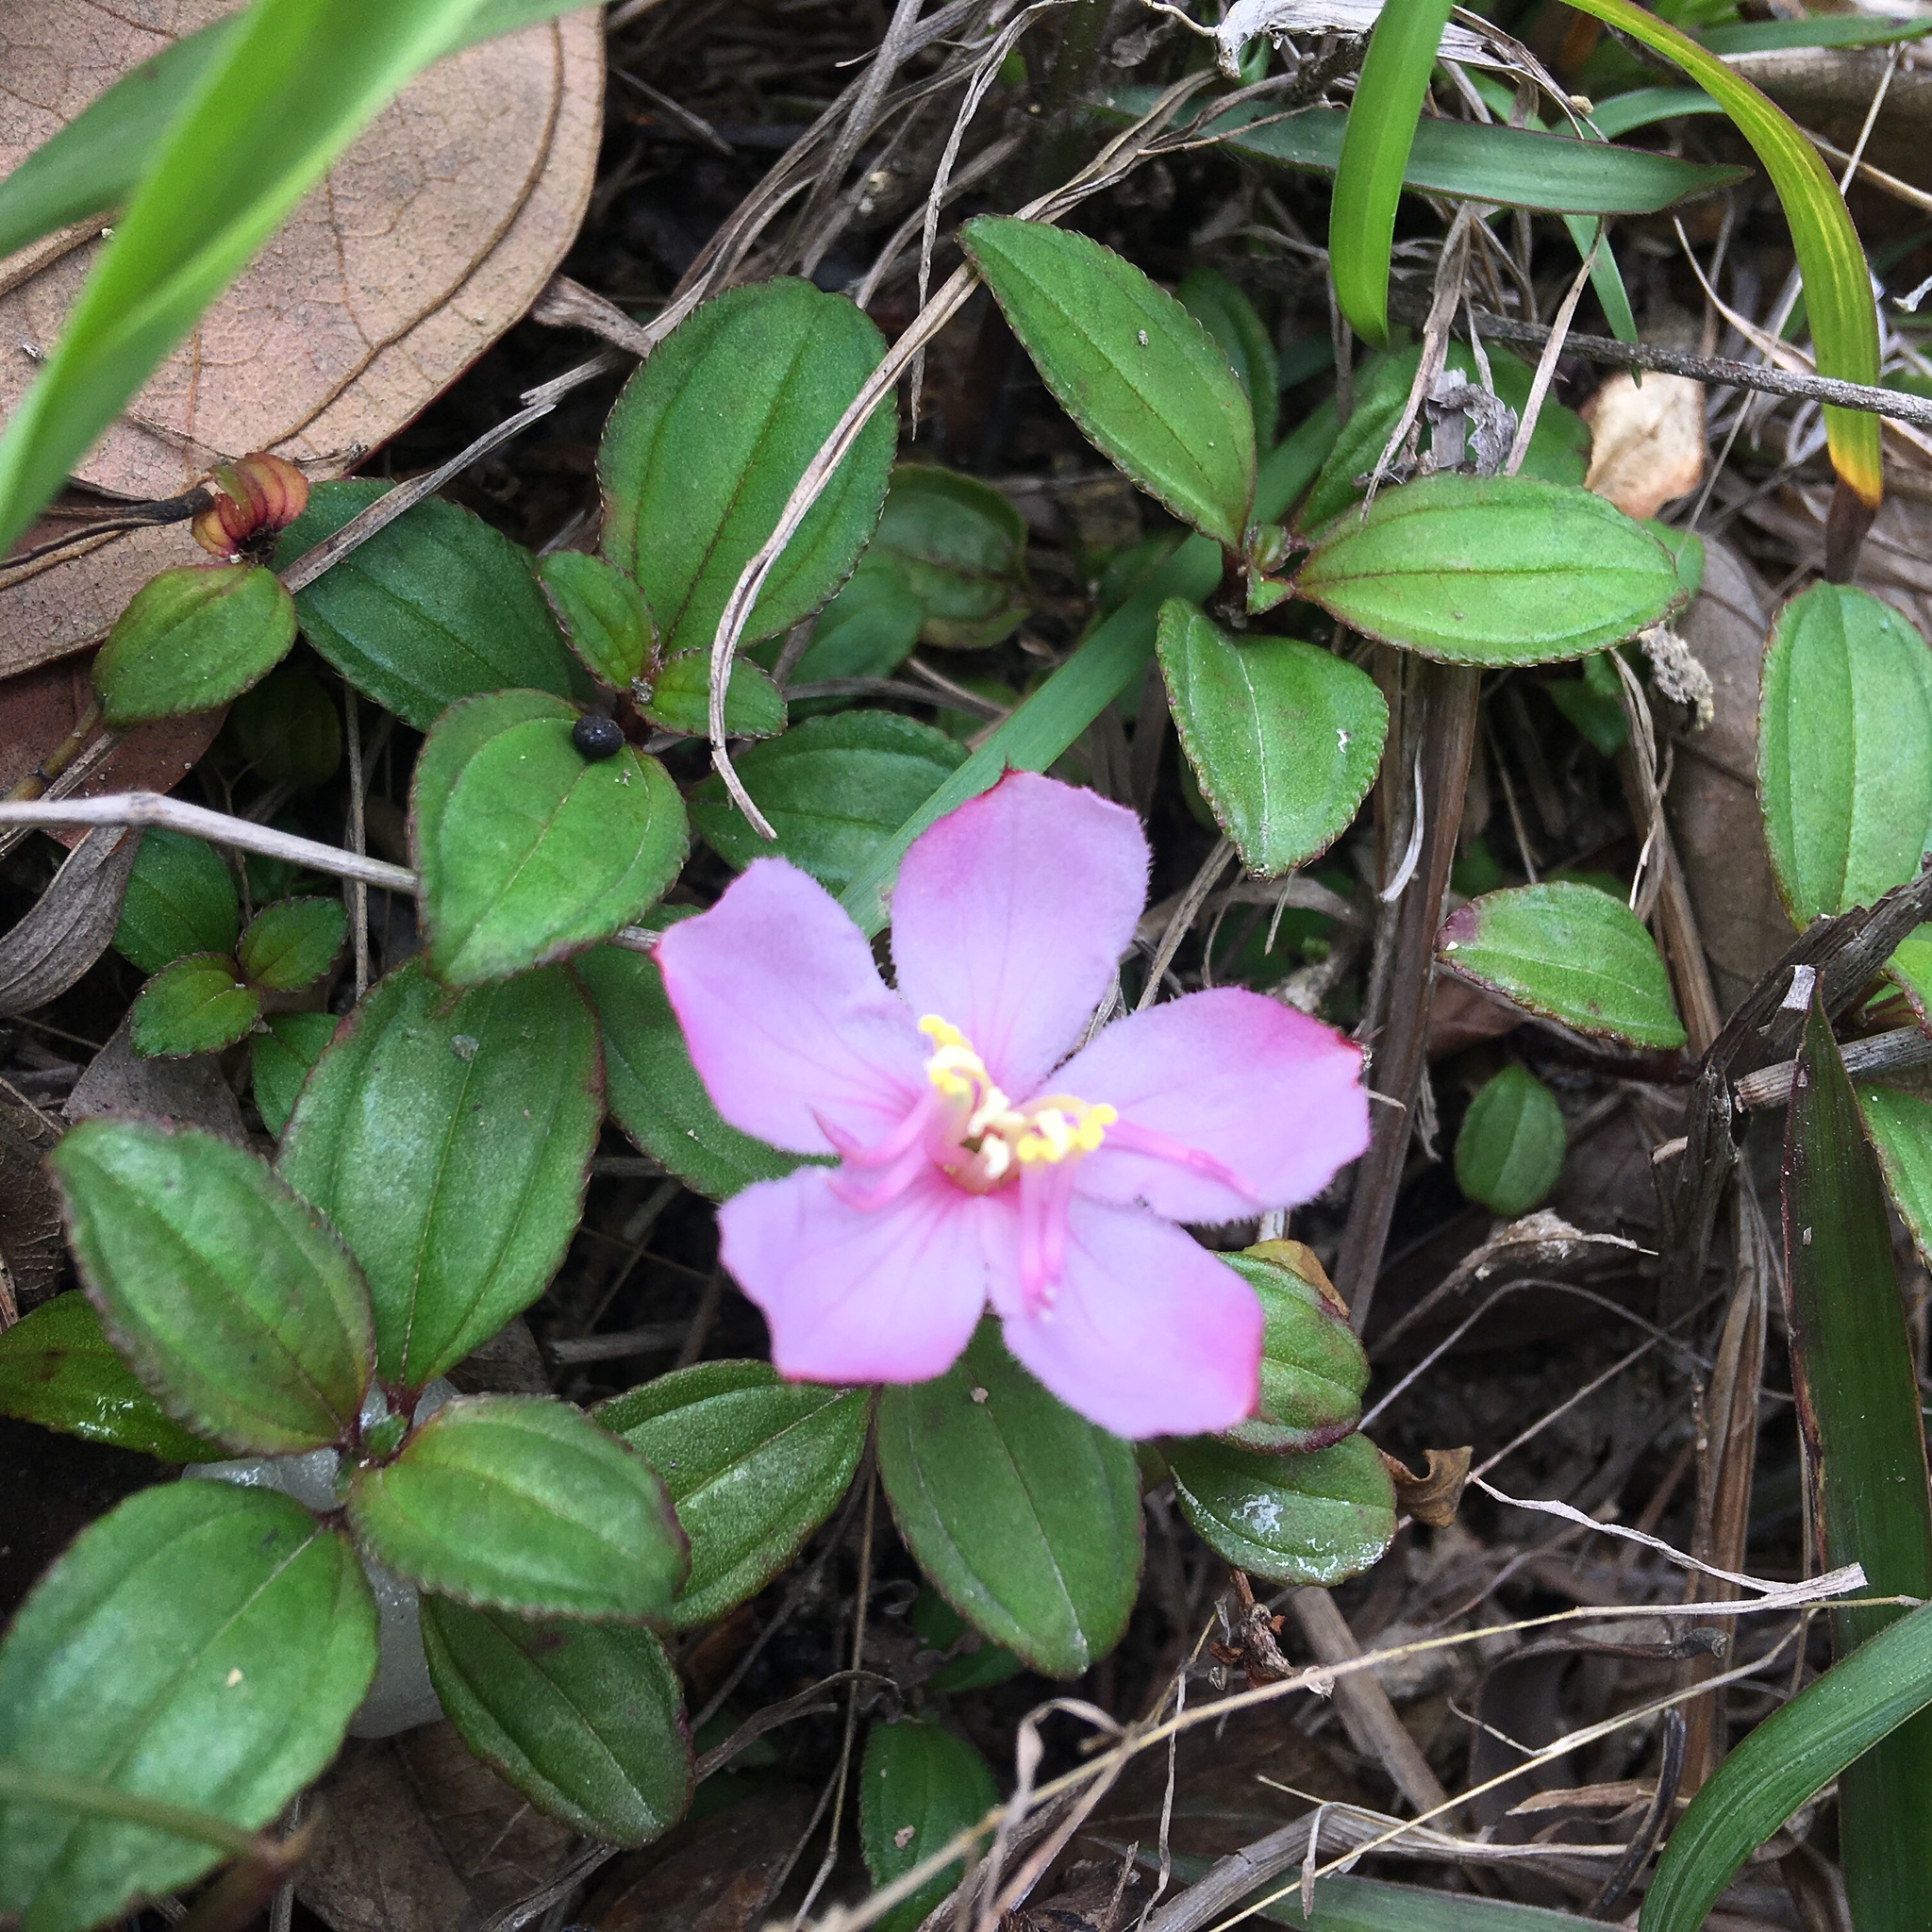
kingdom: Plantae
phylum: Tracheophyta
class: Magnoliopsida
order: Myrtales
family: Melastomataceae
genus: Melastoma
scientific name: Melastoma dodecandrum
